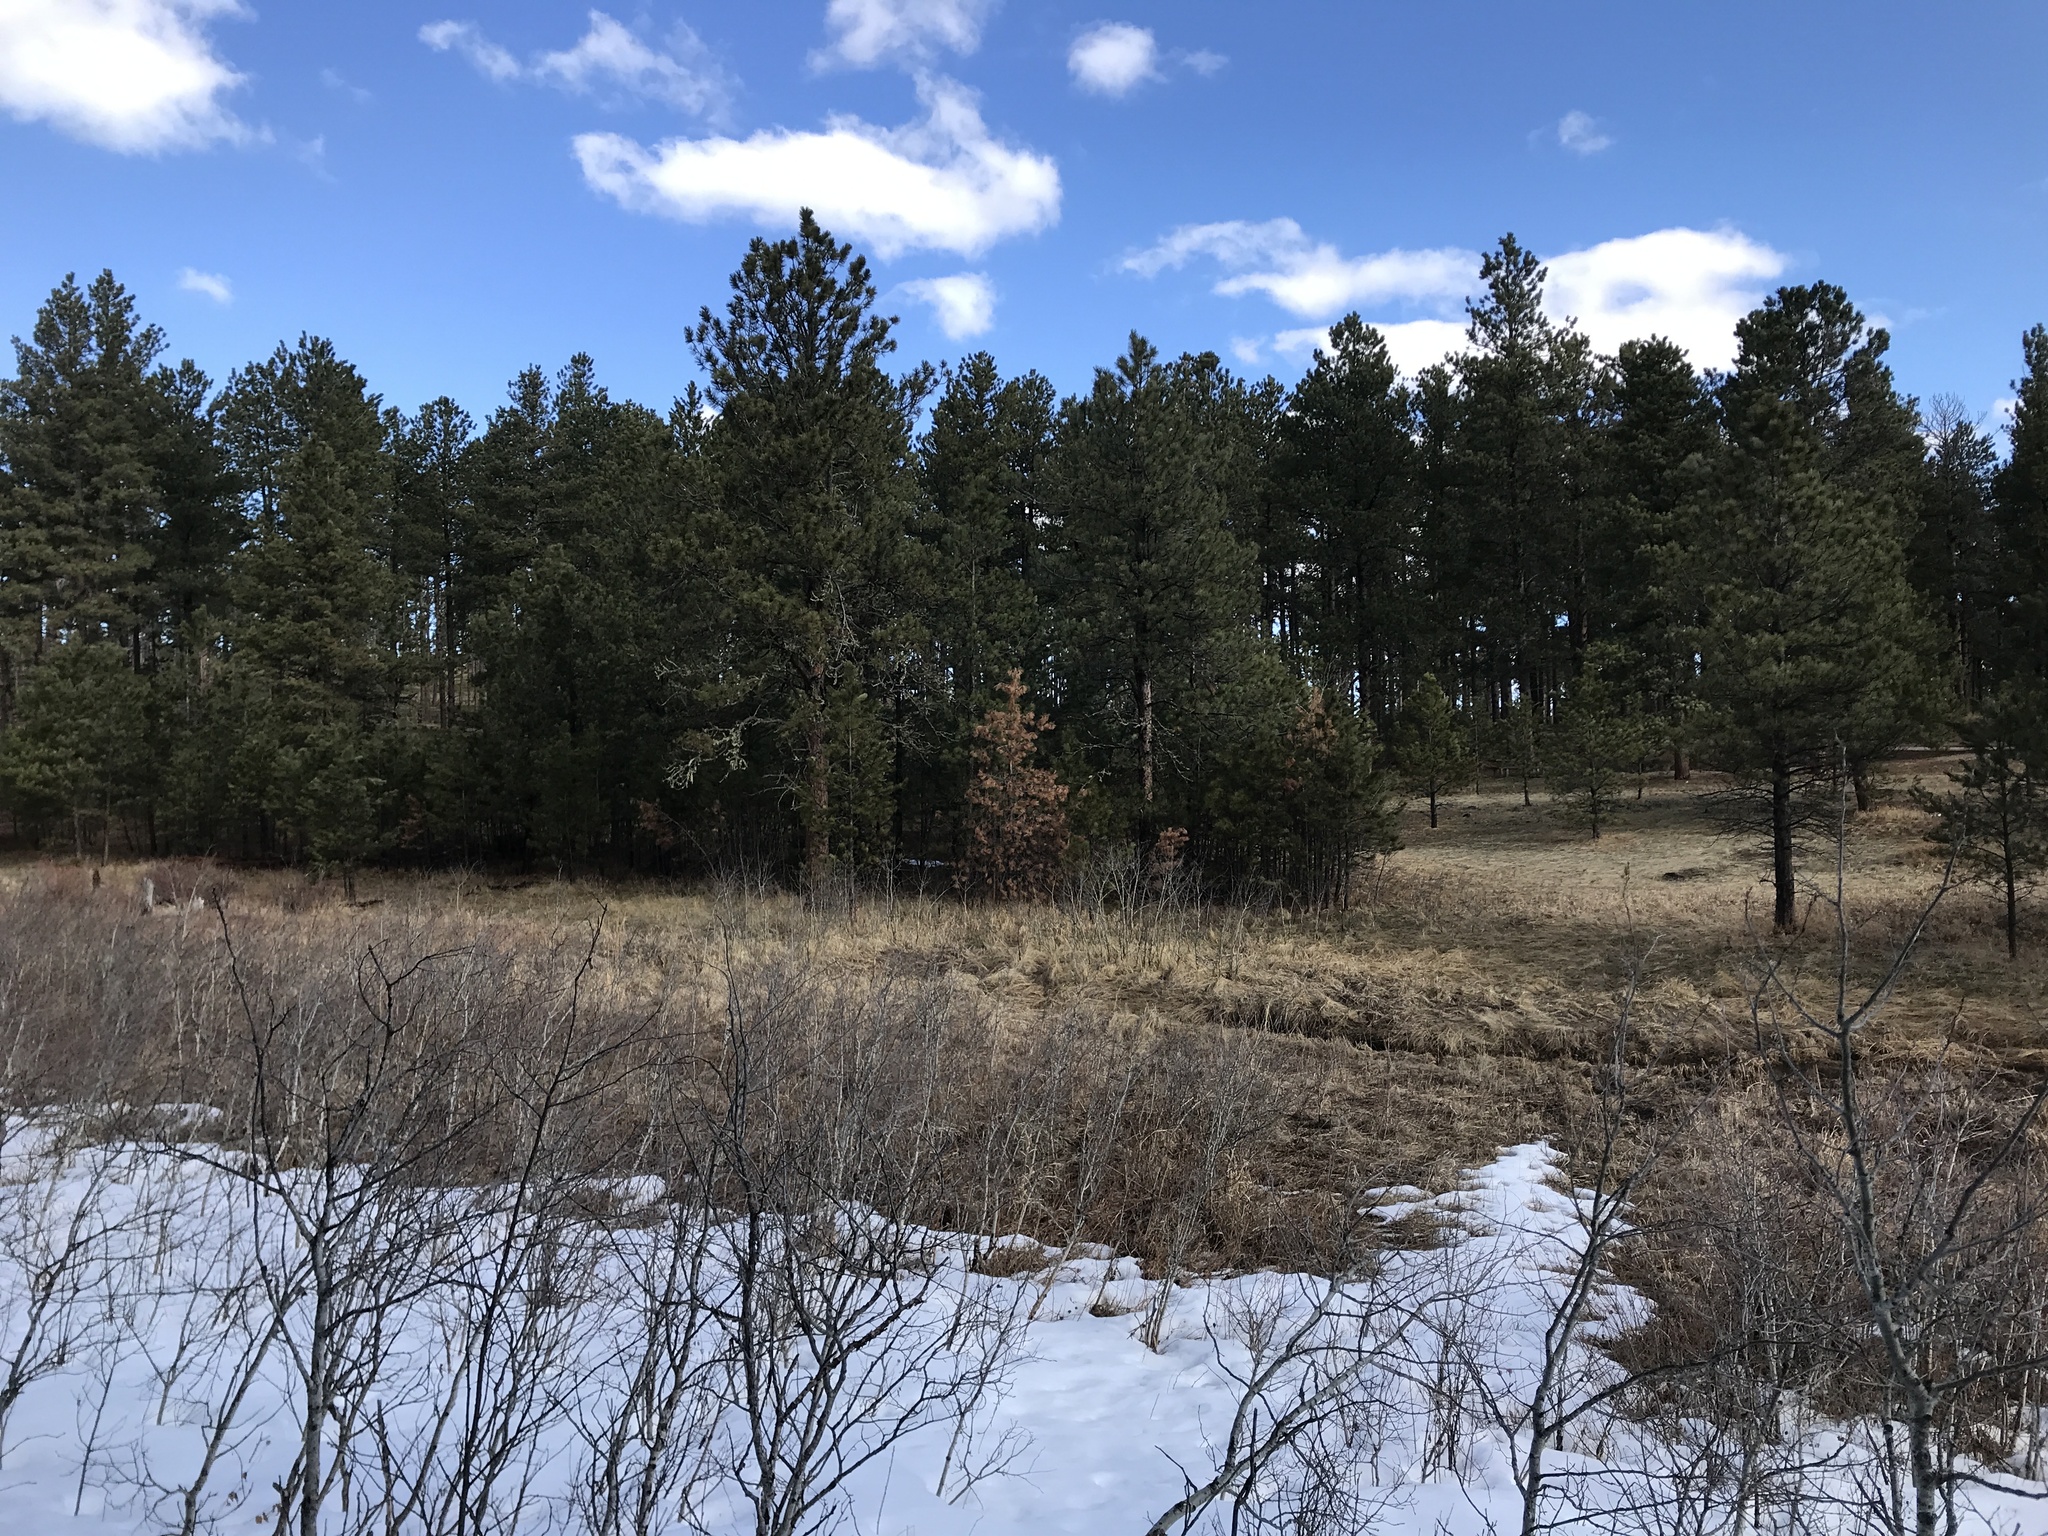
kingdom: Plantae
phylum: Tracheophyta
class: Pinopsida
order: Pinales
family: Pinaceae
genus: Pinus
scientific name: Pinus ponderosa
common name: Western yellow-pine
